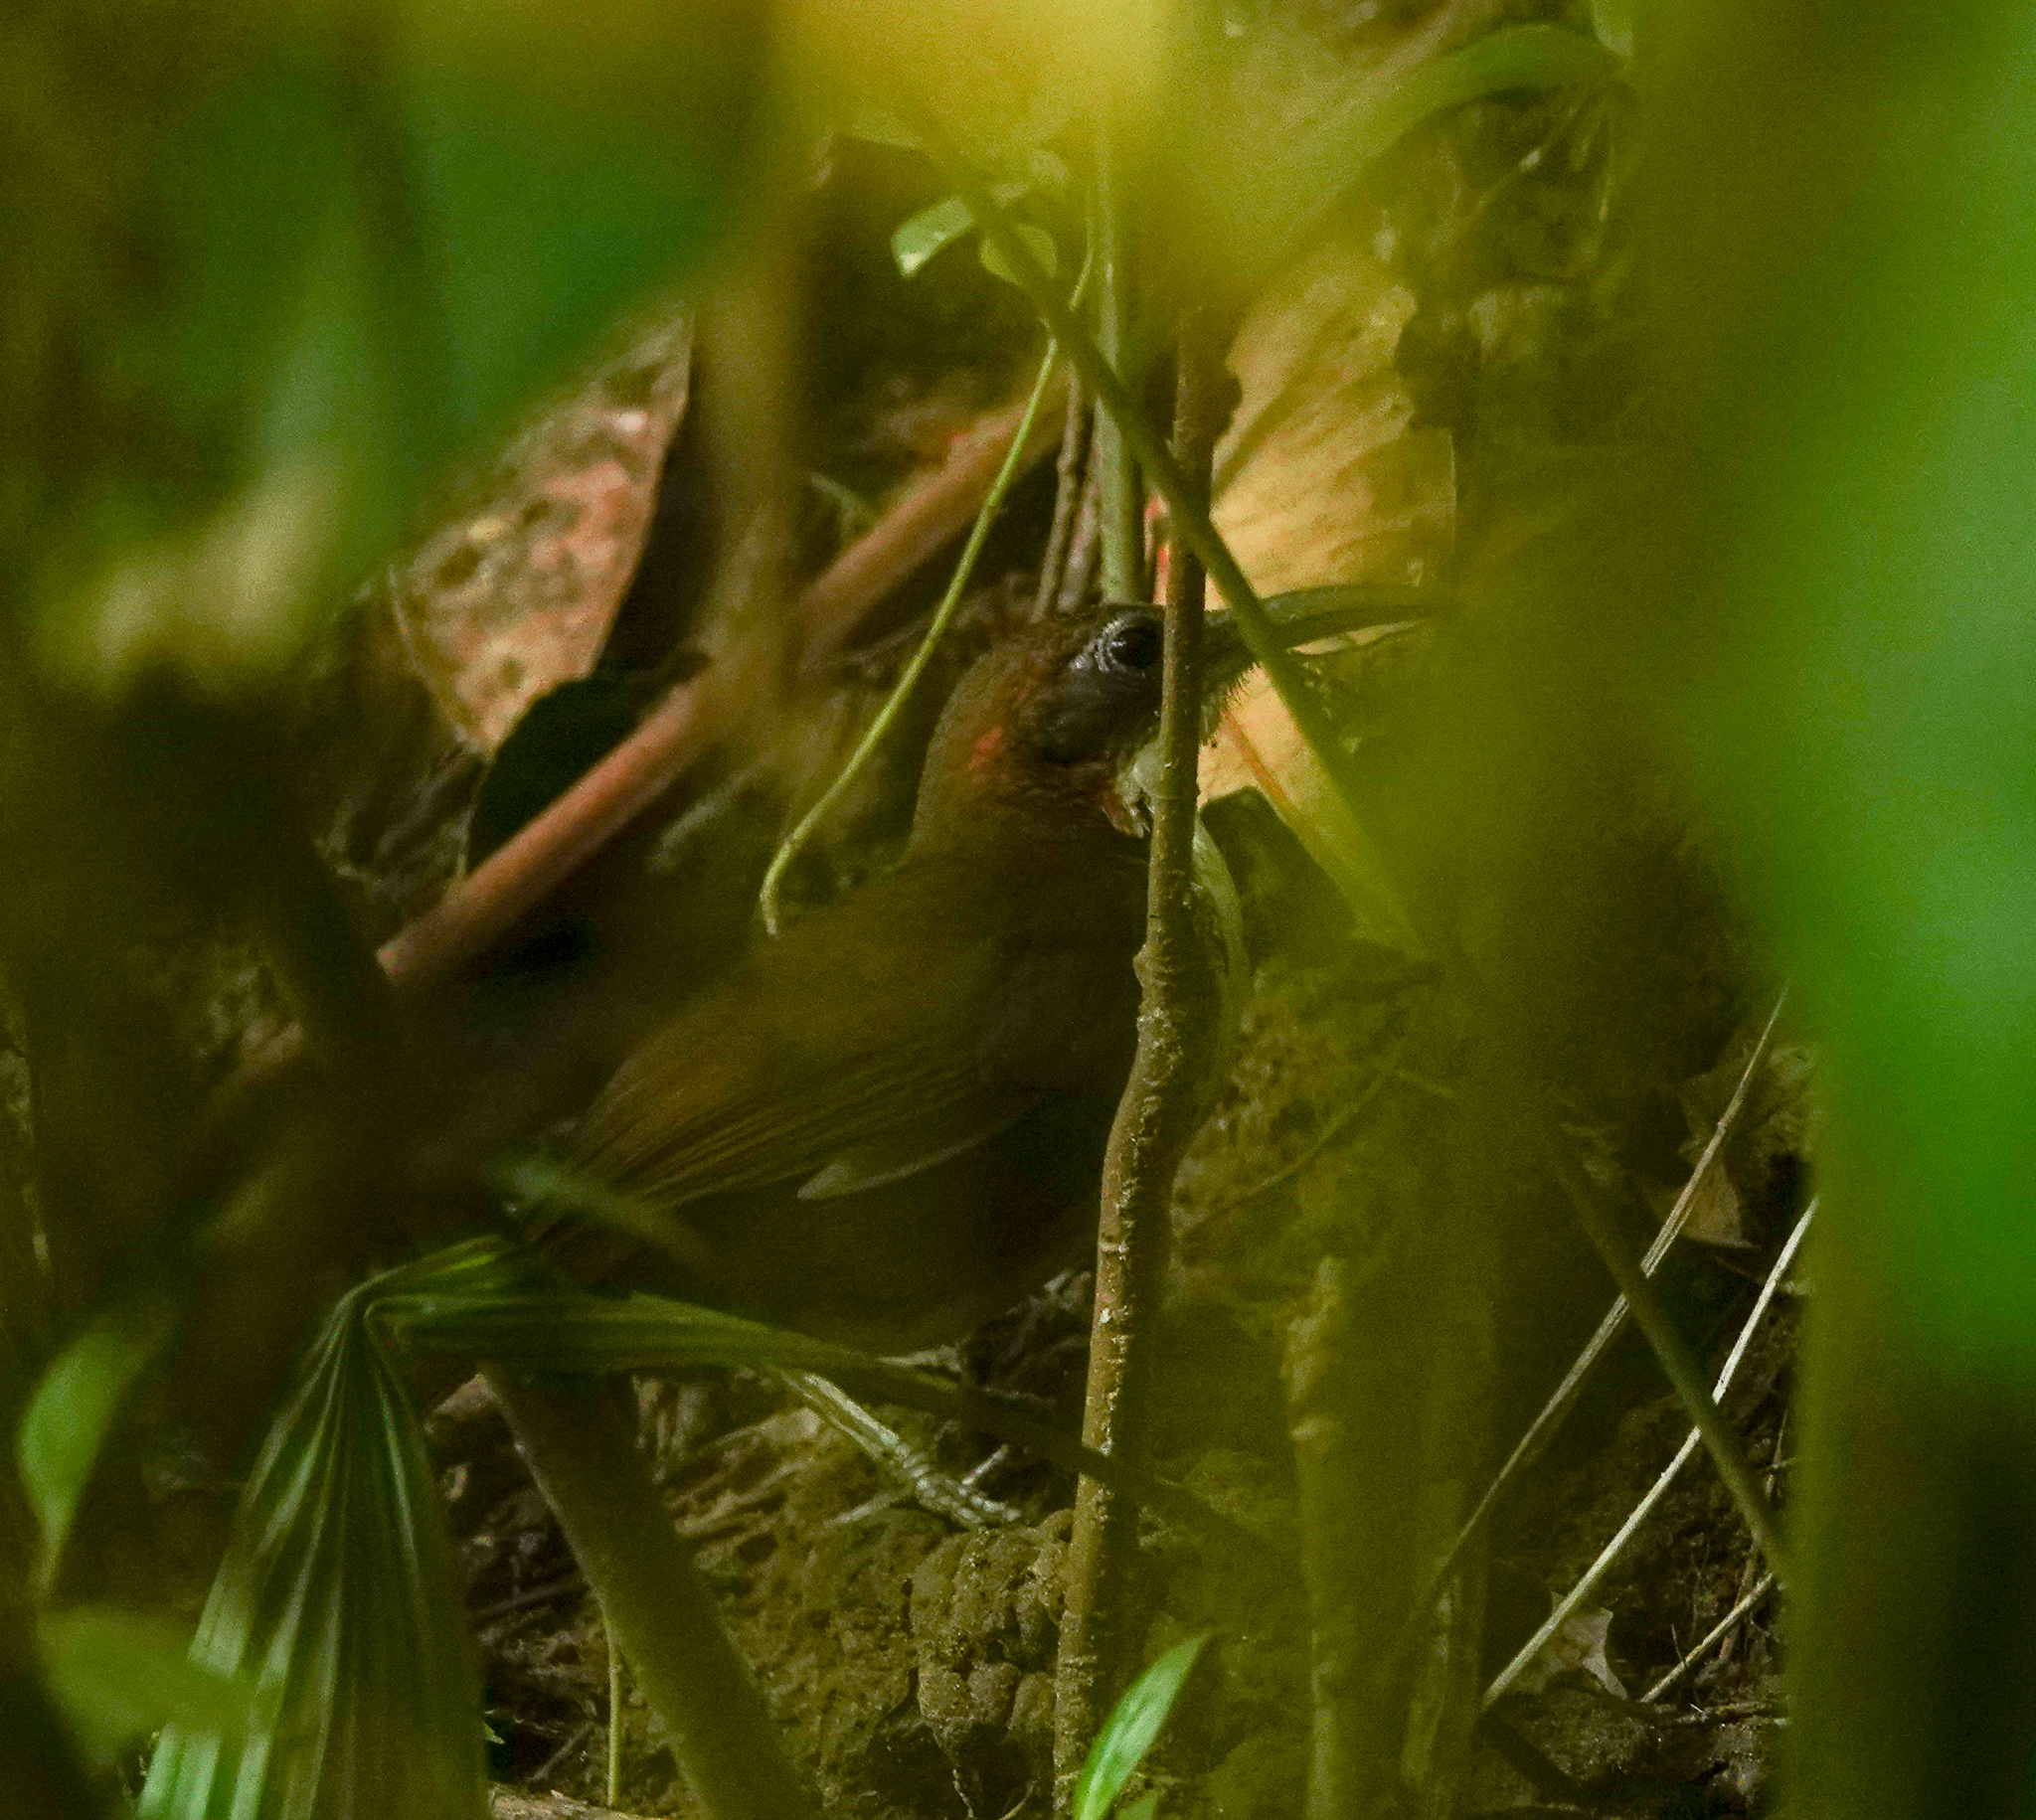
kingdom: Animalia
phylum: Chordata
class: Aves
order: Passeriformes
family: Timaliidae
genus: Pomatorhinus
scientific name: Pomatorhinus hypoleucos
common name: Large scimitar babbler
